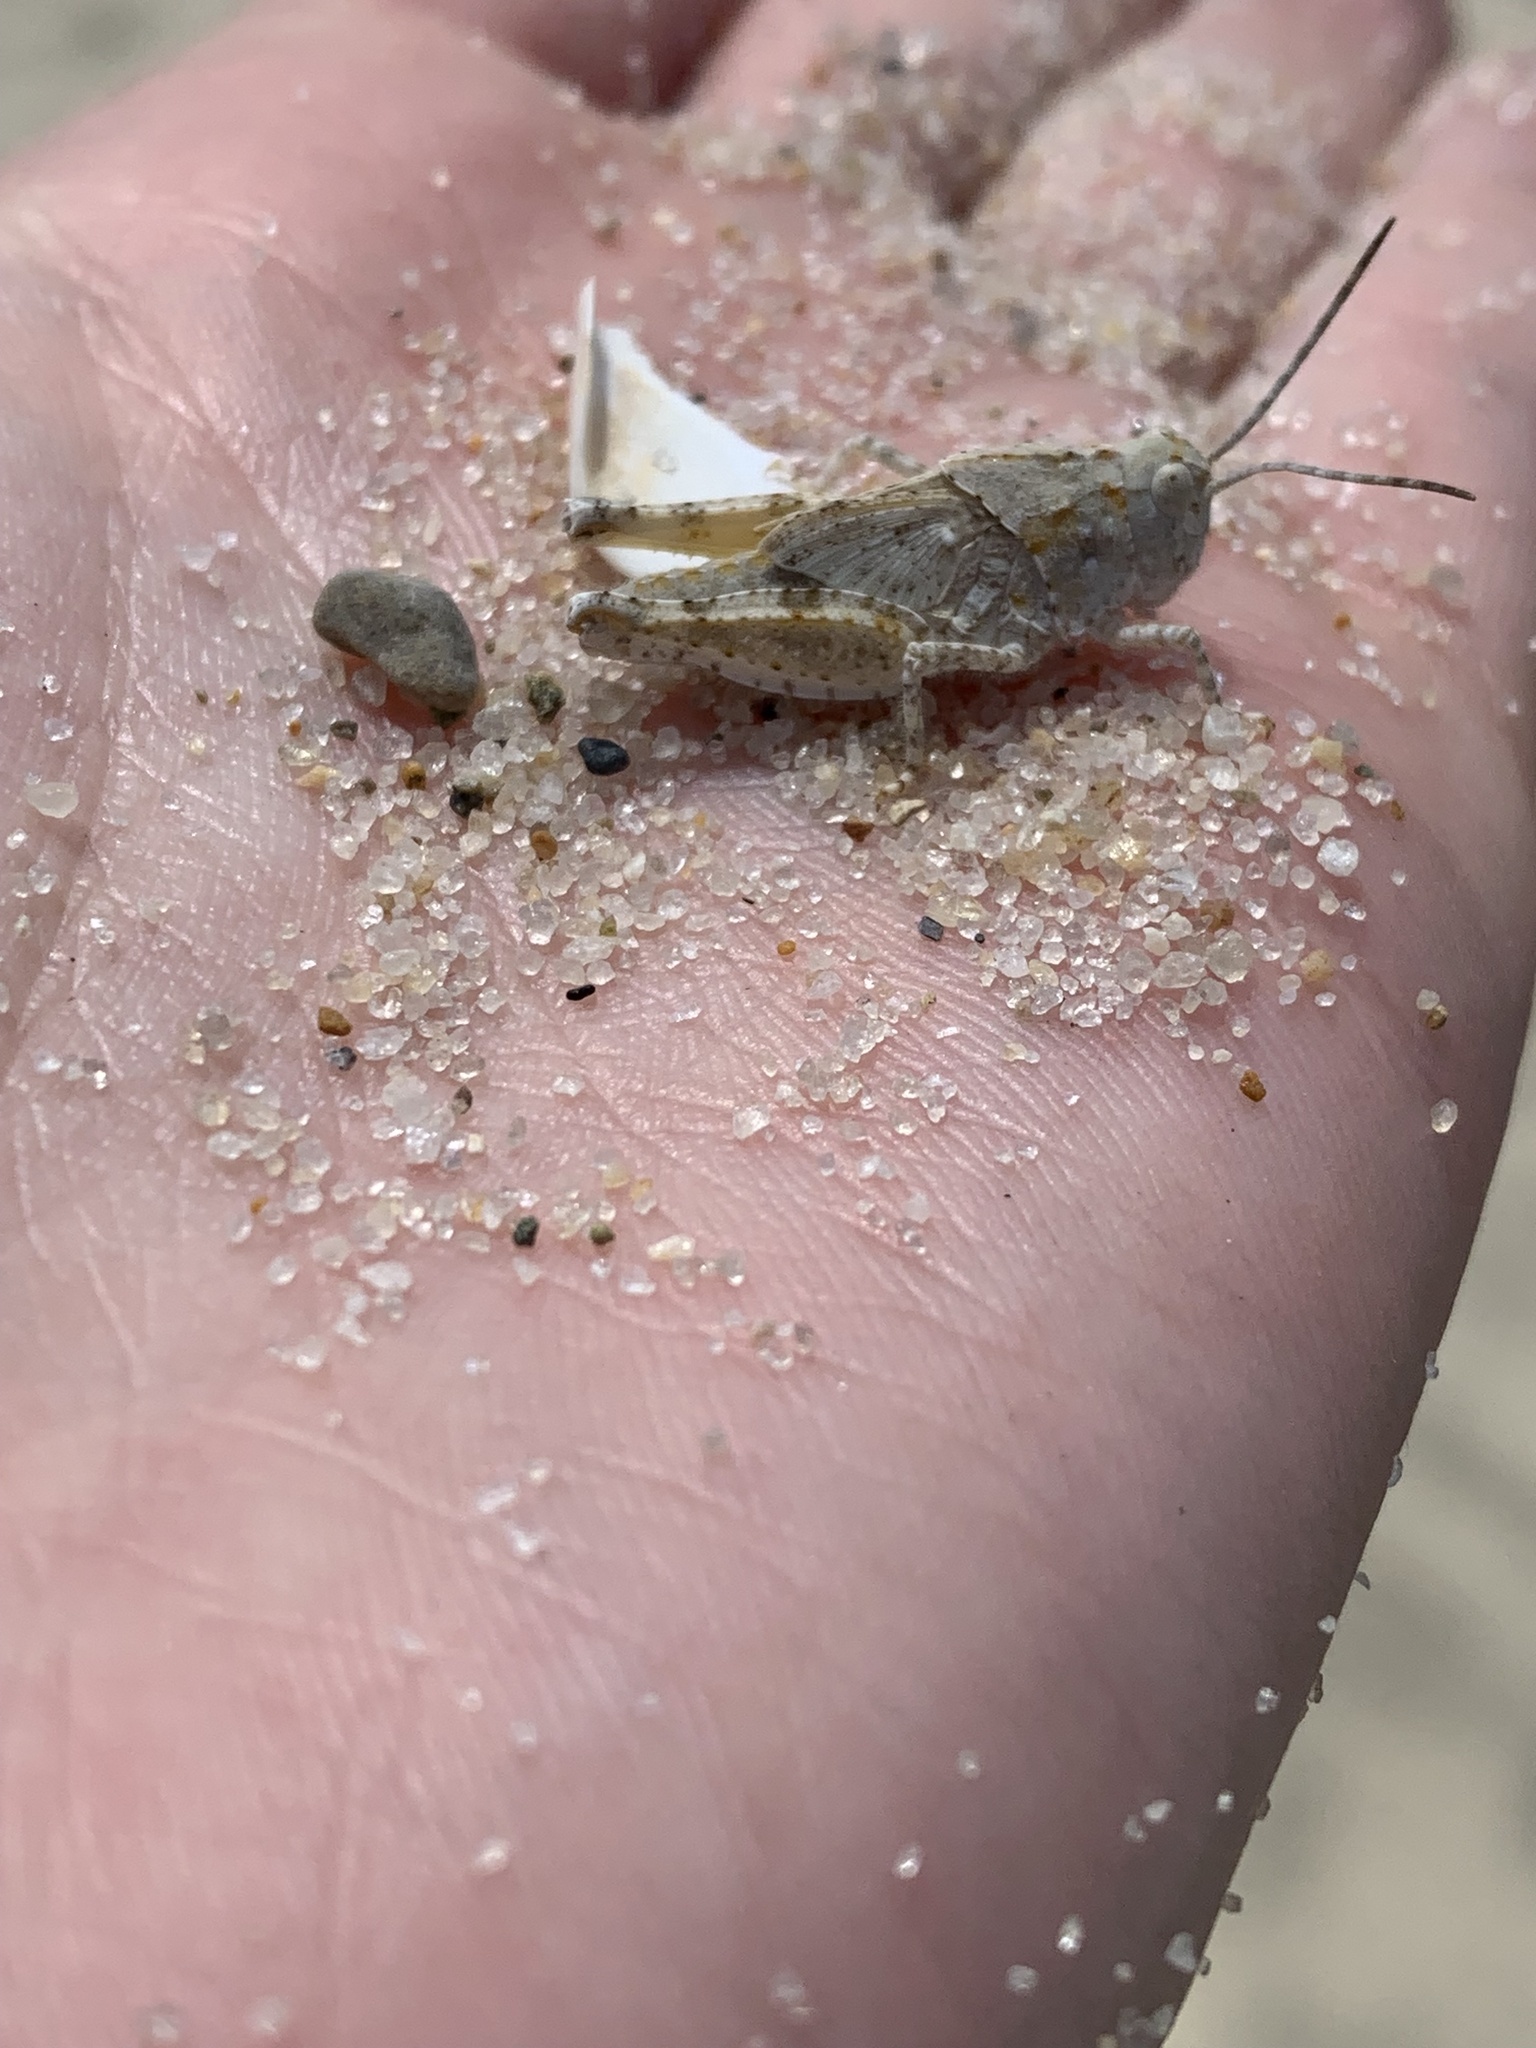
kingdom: Animalia
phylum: Arthropoda
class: Insecta
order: Orthoptera
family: Acrididae
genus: Trimerotropis
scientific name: Trimerotropis maritima
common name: Seaside locust
